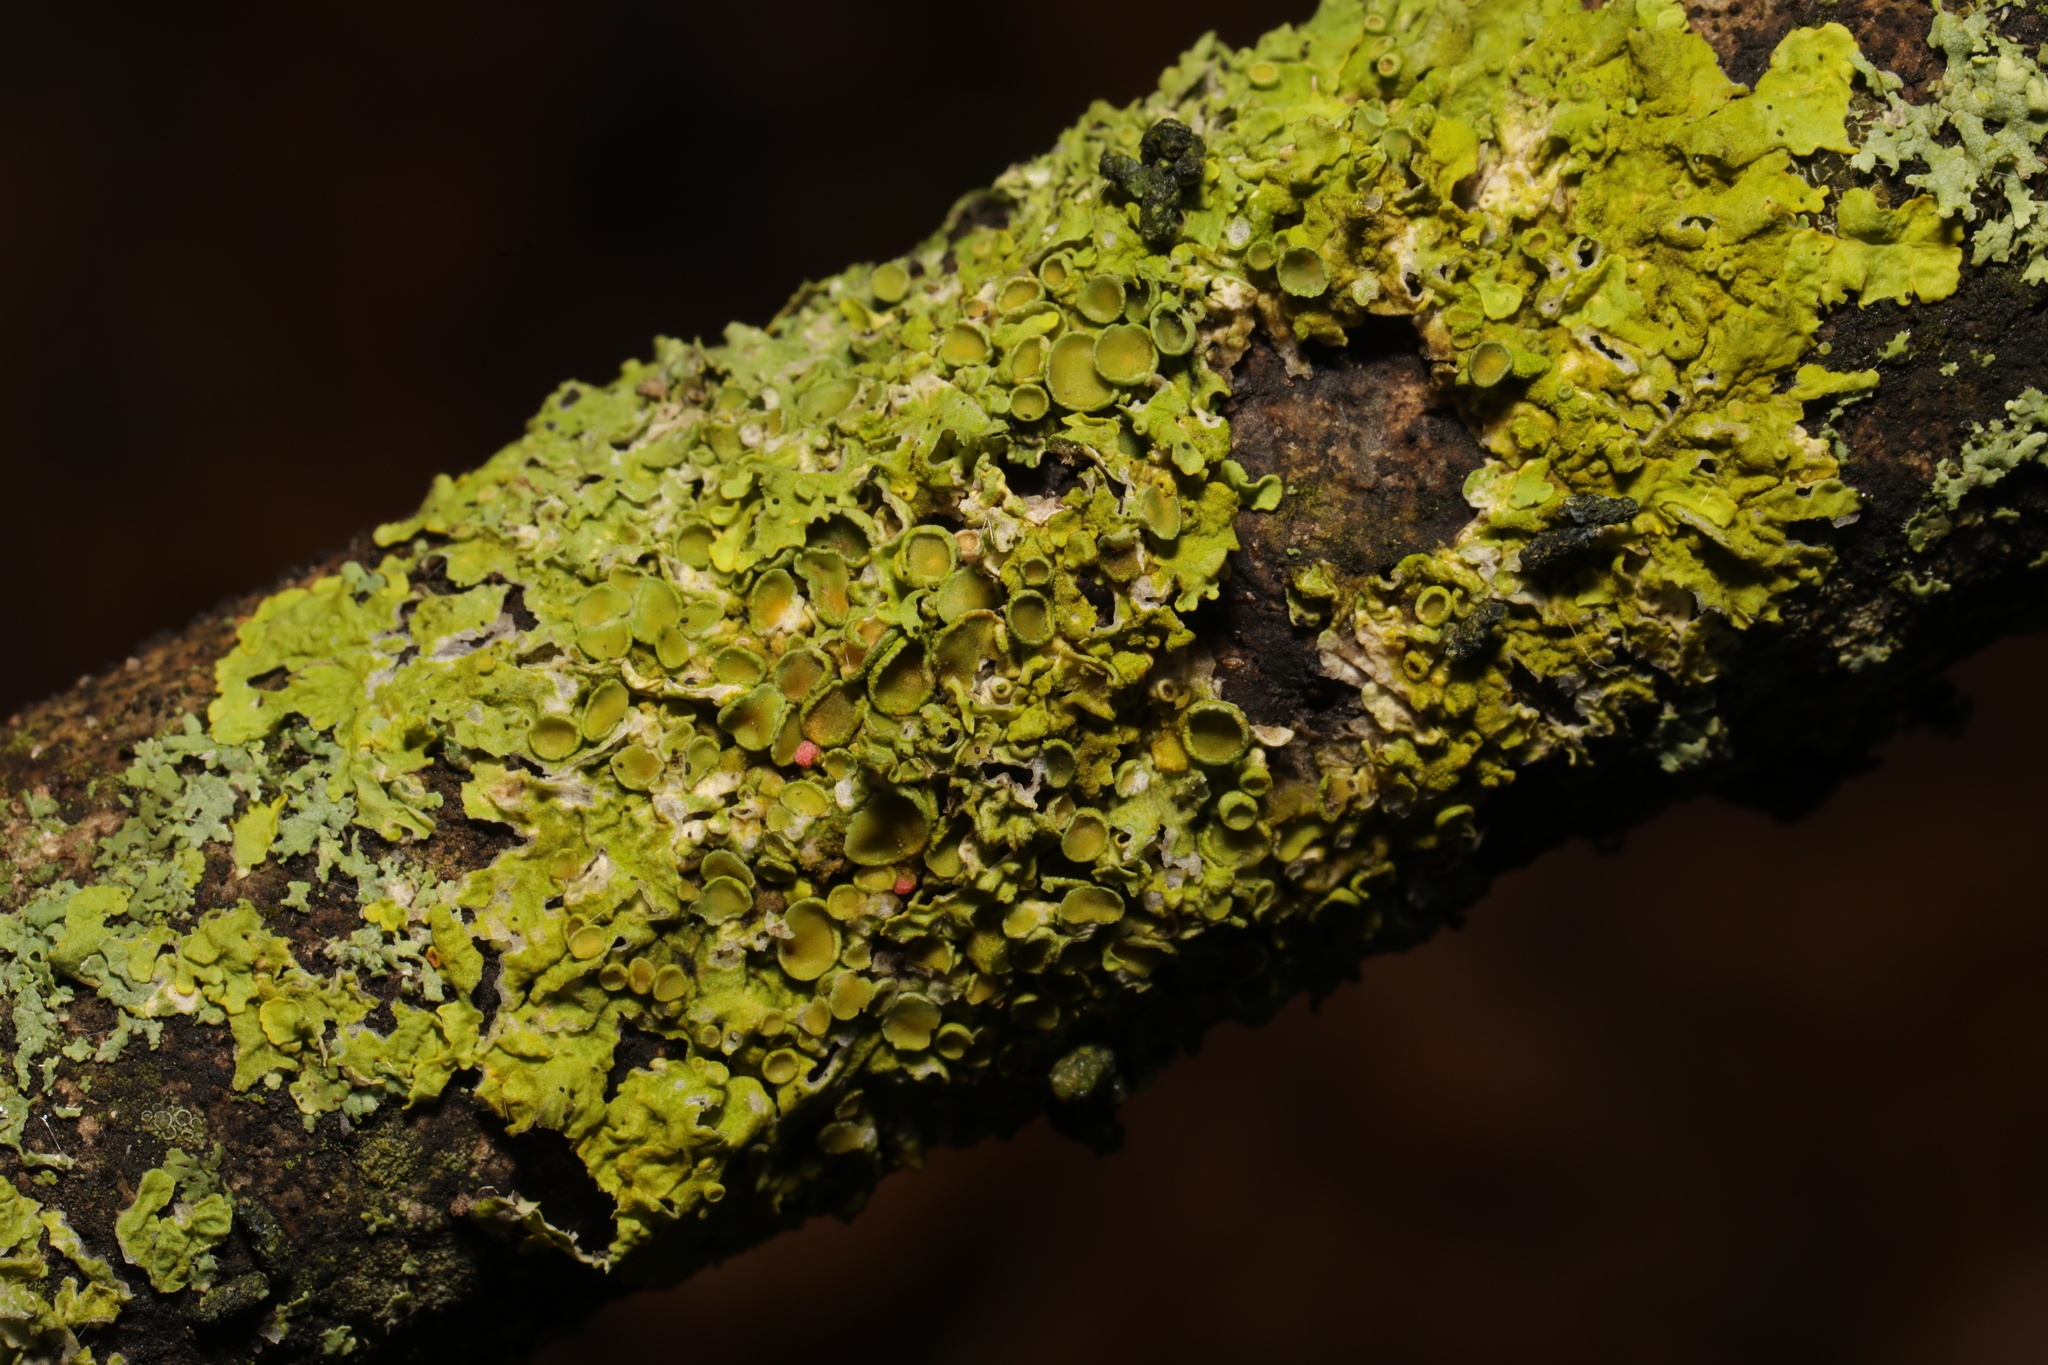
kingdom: Fungi
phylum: Ascomycota
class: Lecanoromycetes
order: Teloschistales
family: Teloschistaceae
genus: Xanthoria
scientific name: Xanthoria parietina
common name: Common orange lichen
